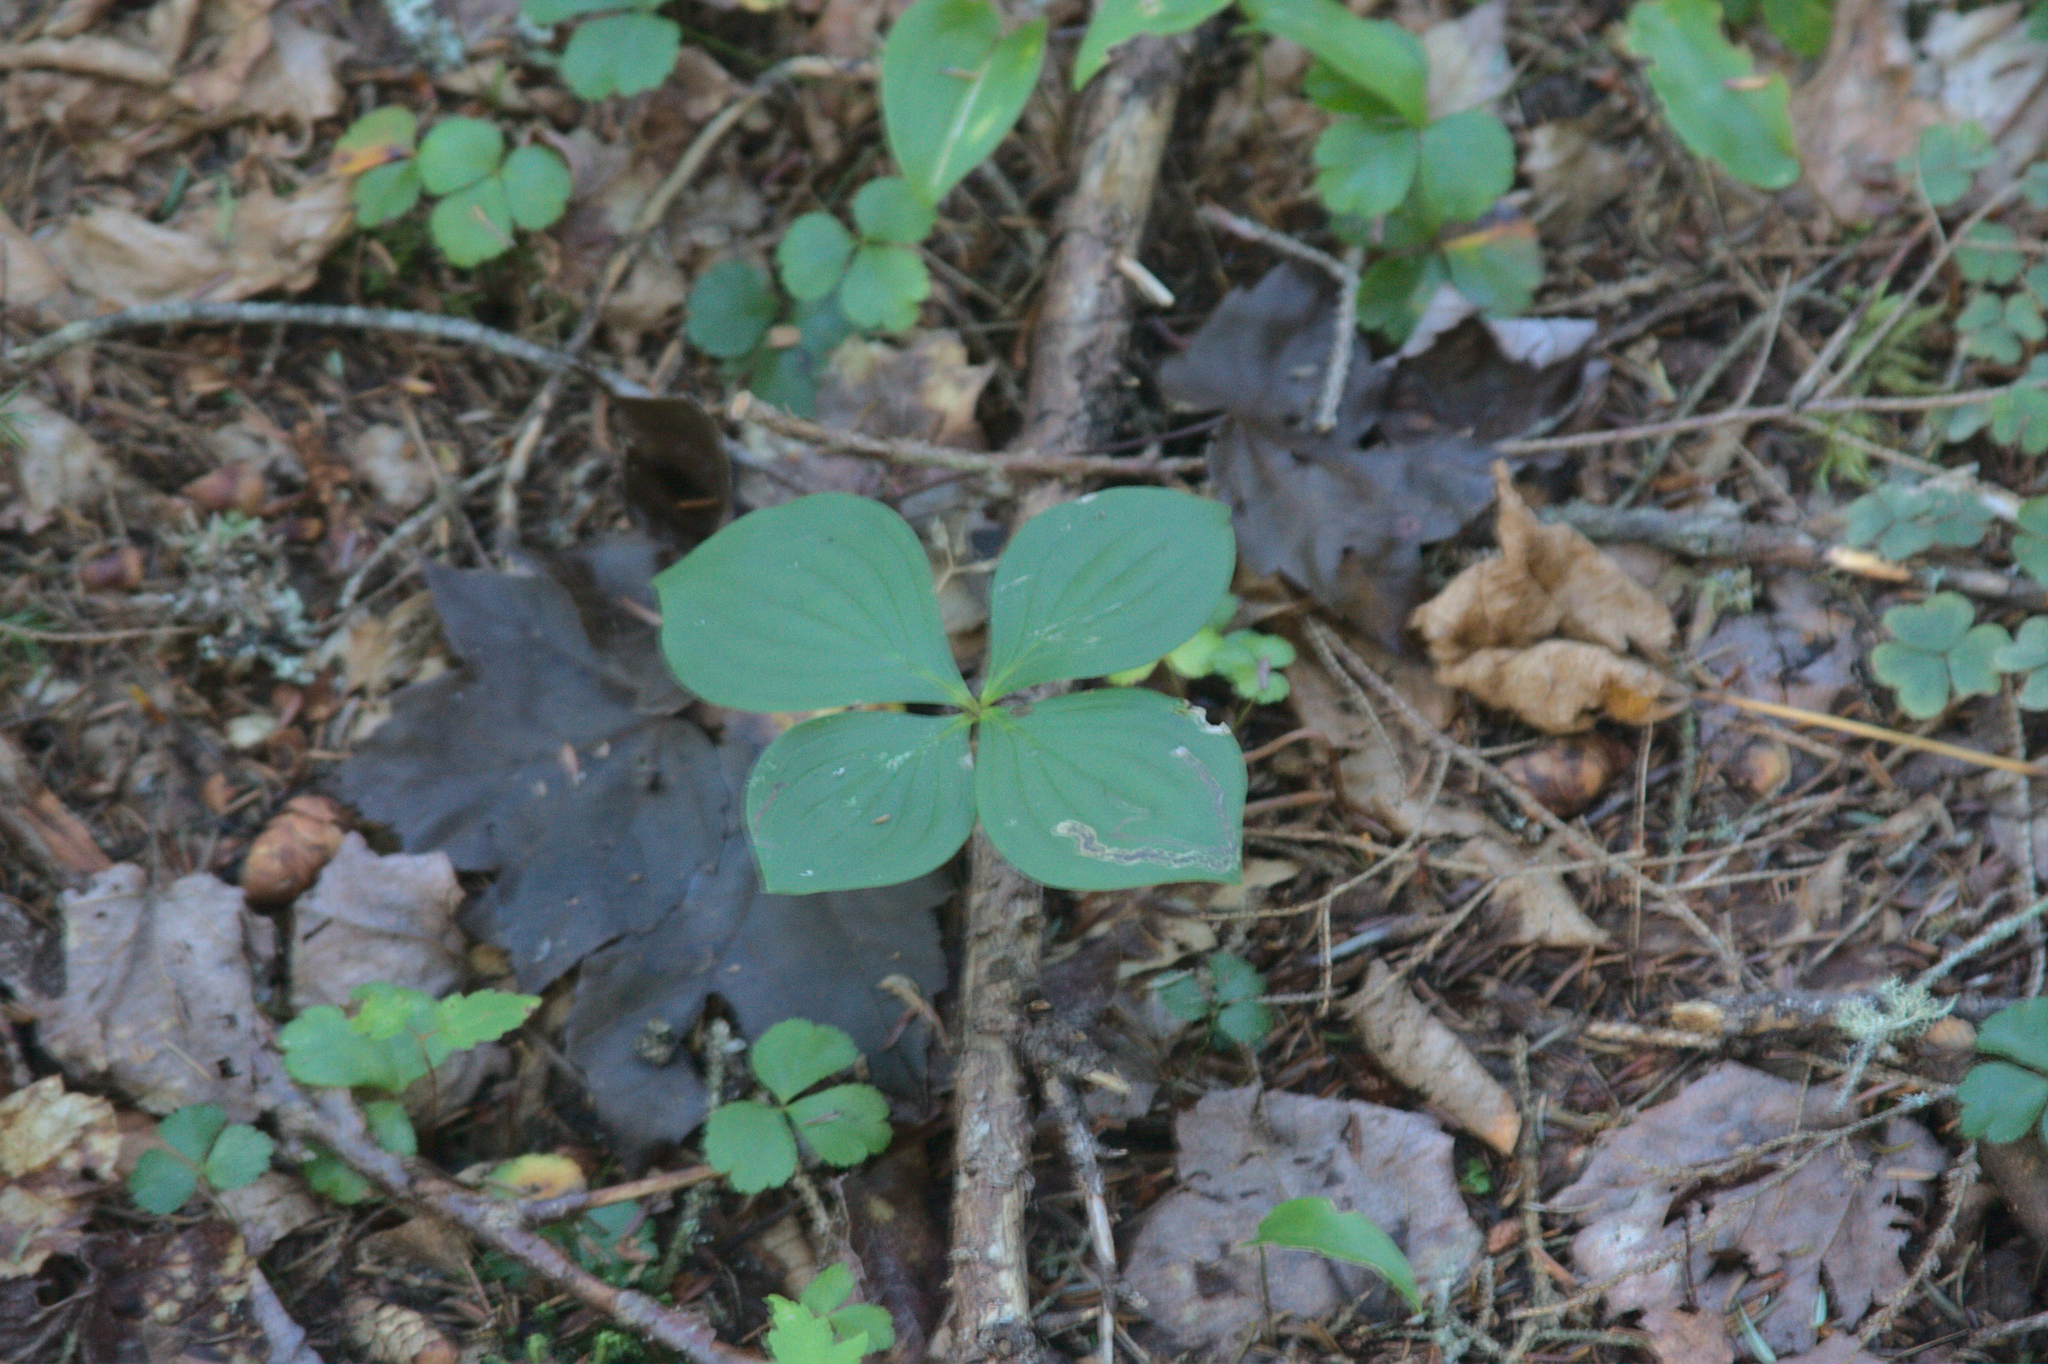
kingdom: Plantae
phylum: Tracheophyta
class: Magnoliopsida
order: Cornales
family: Cornaceae
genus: Cornus
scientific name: Cornus canadensis
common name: Creeping dogwood
